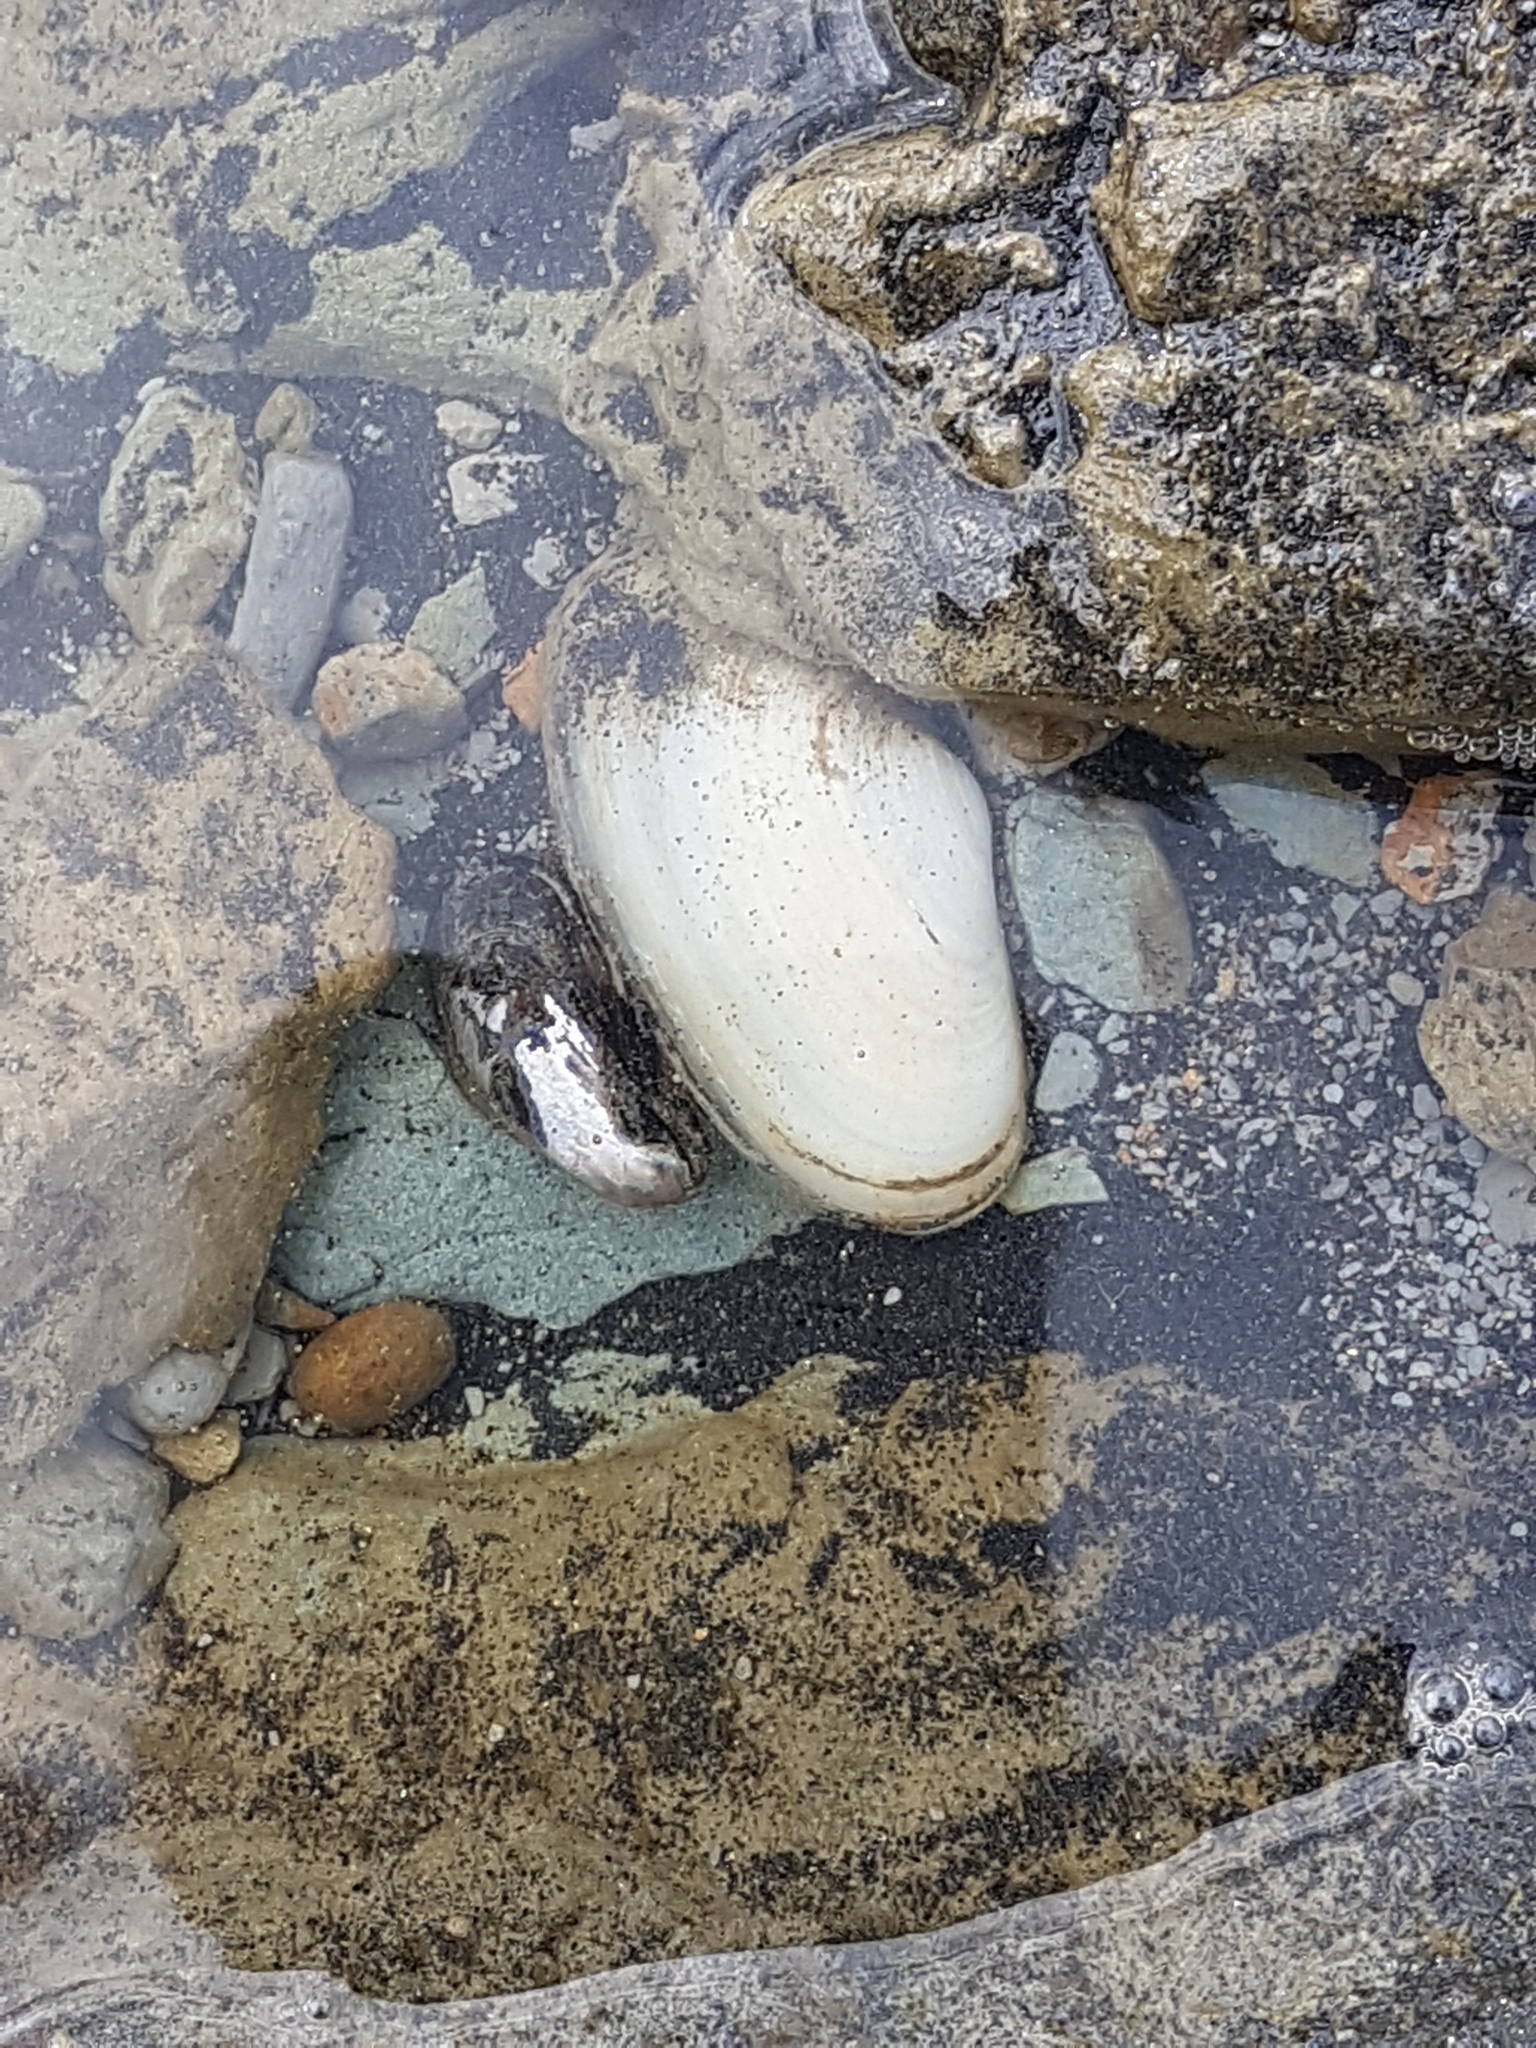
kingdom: Animalia
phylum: Mollusca
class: Bivalvia
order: Venerida
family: Mesodesmatidae
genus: Paphies
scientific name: Paphies australis
